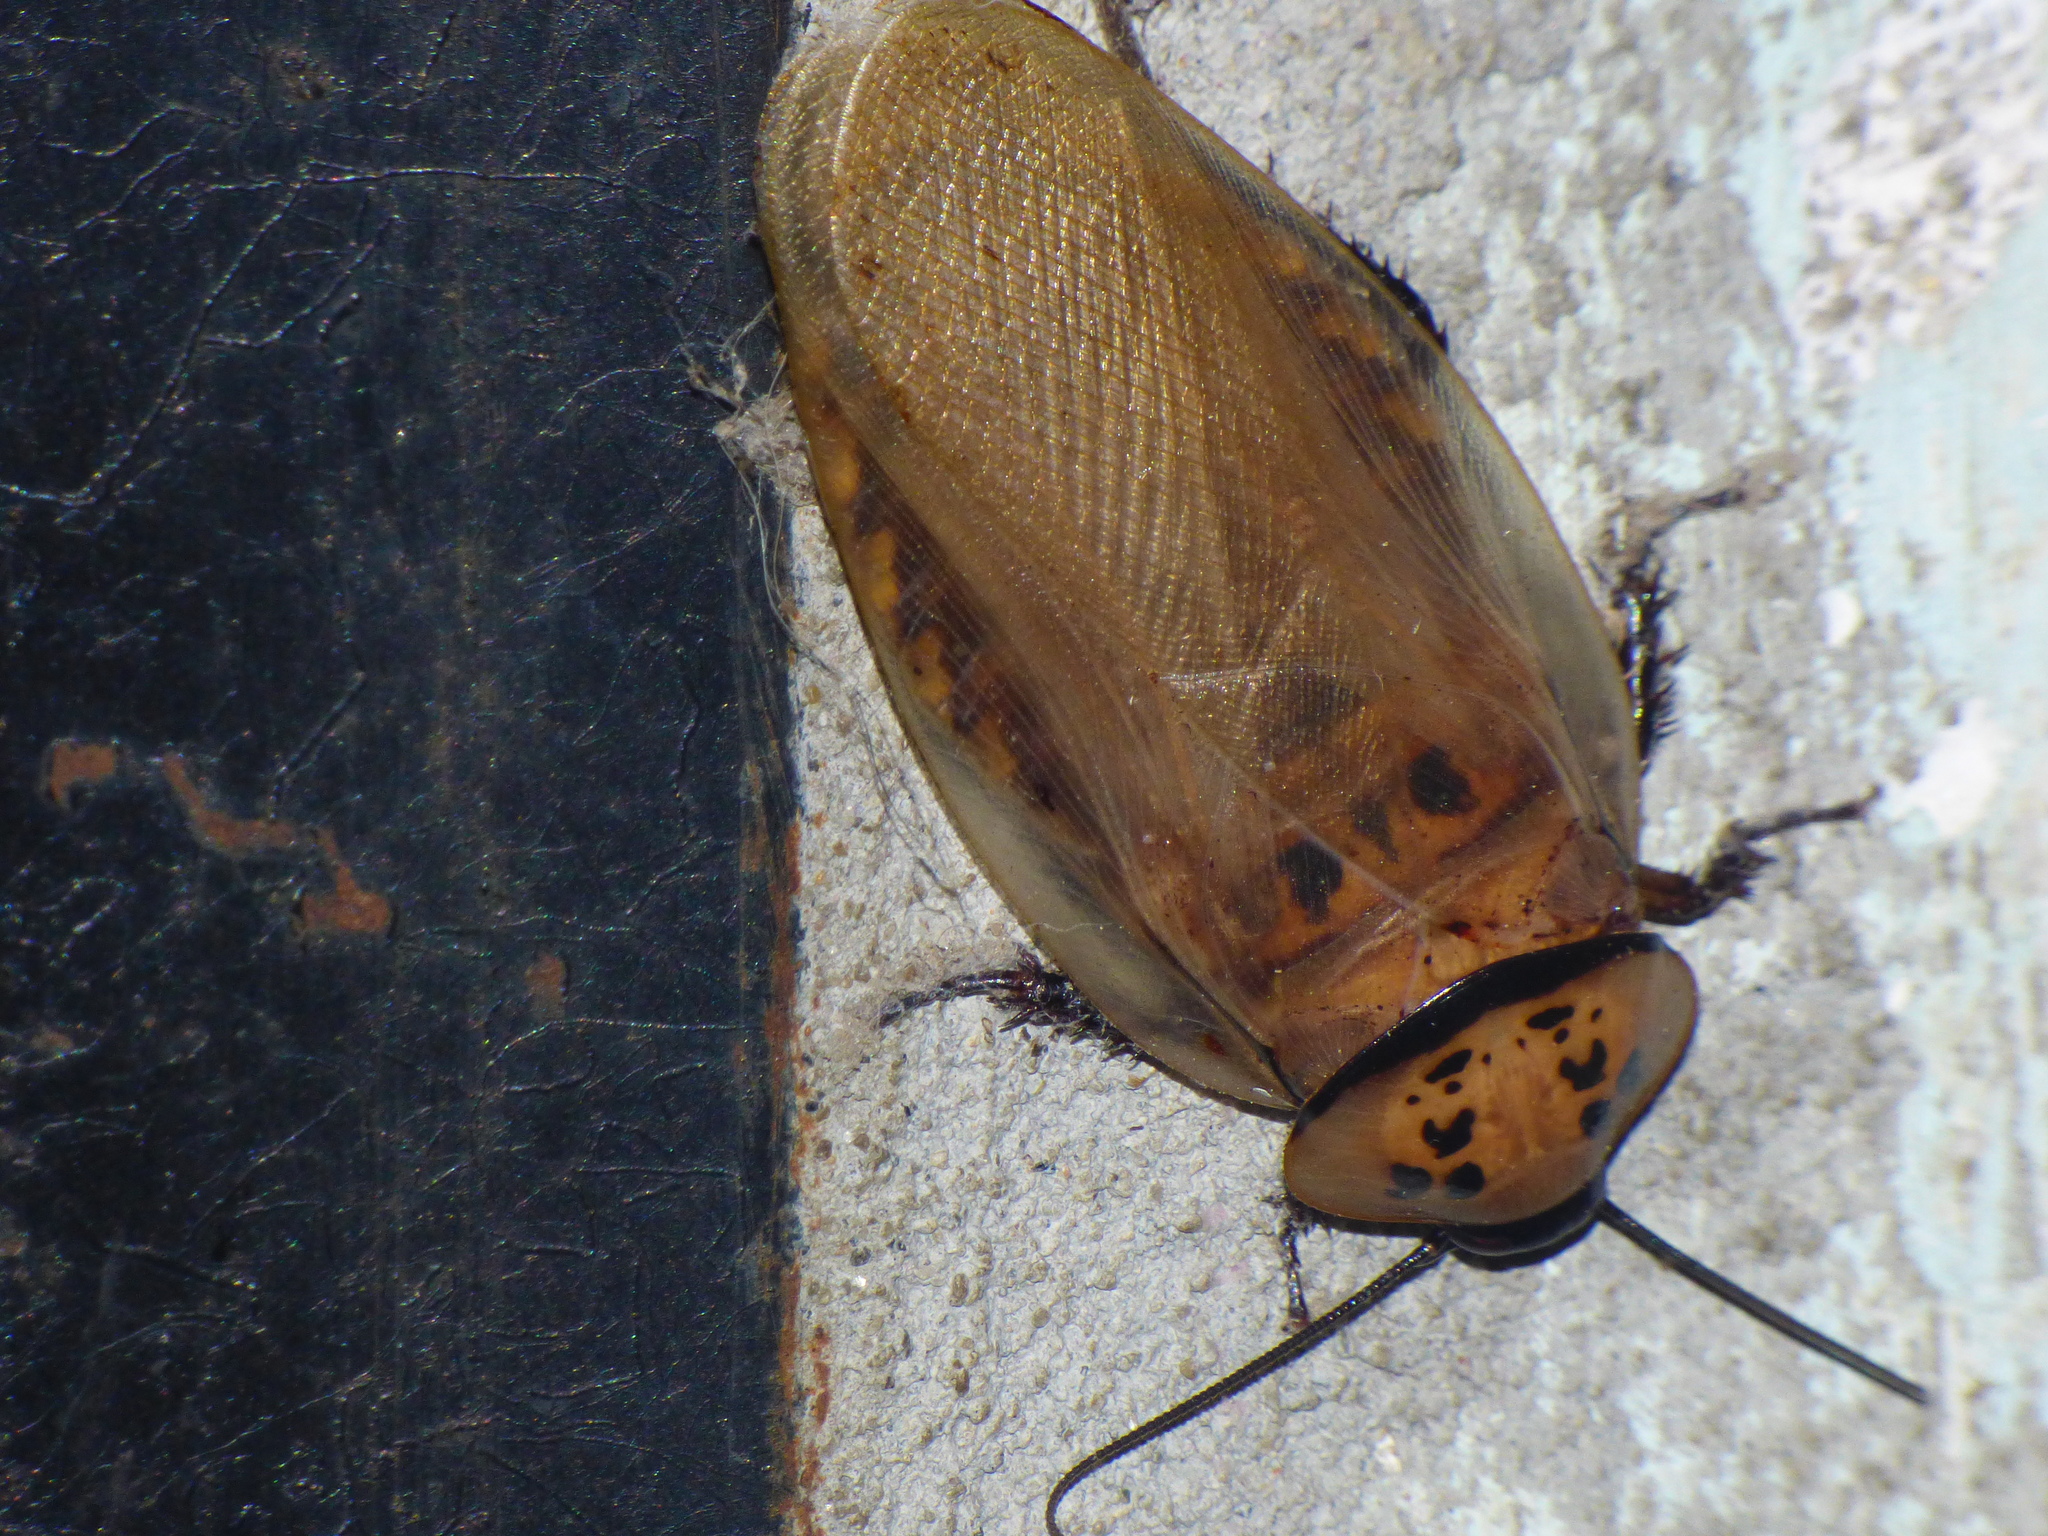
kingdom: Animalia
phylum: Arthropoda
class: Insecta
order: Blattodea
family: Blaberidae
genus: Eublaberus
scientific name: Eublaberus distanti
